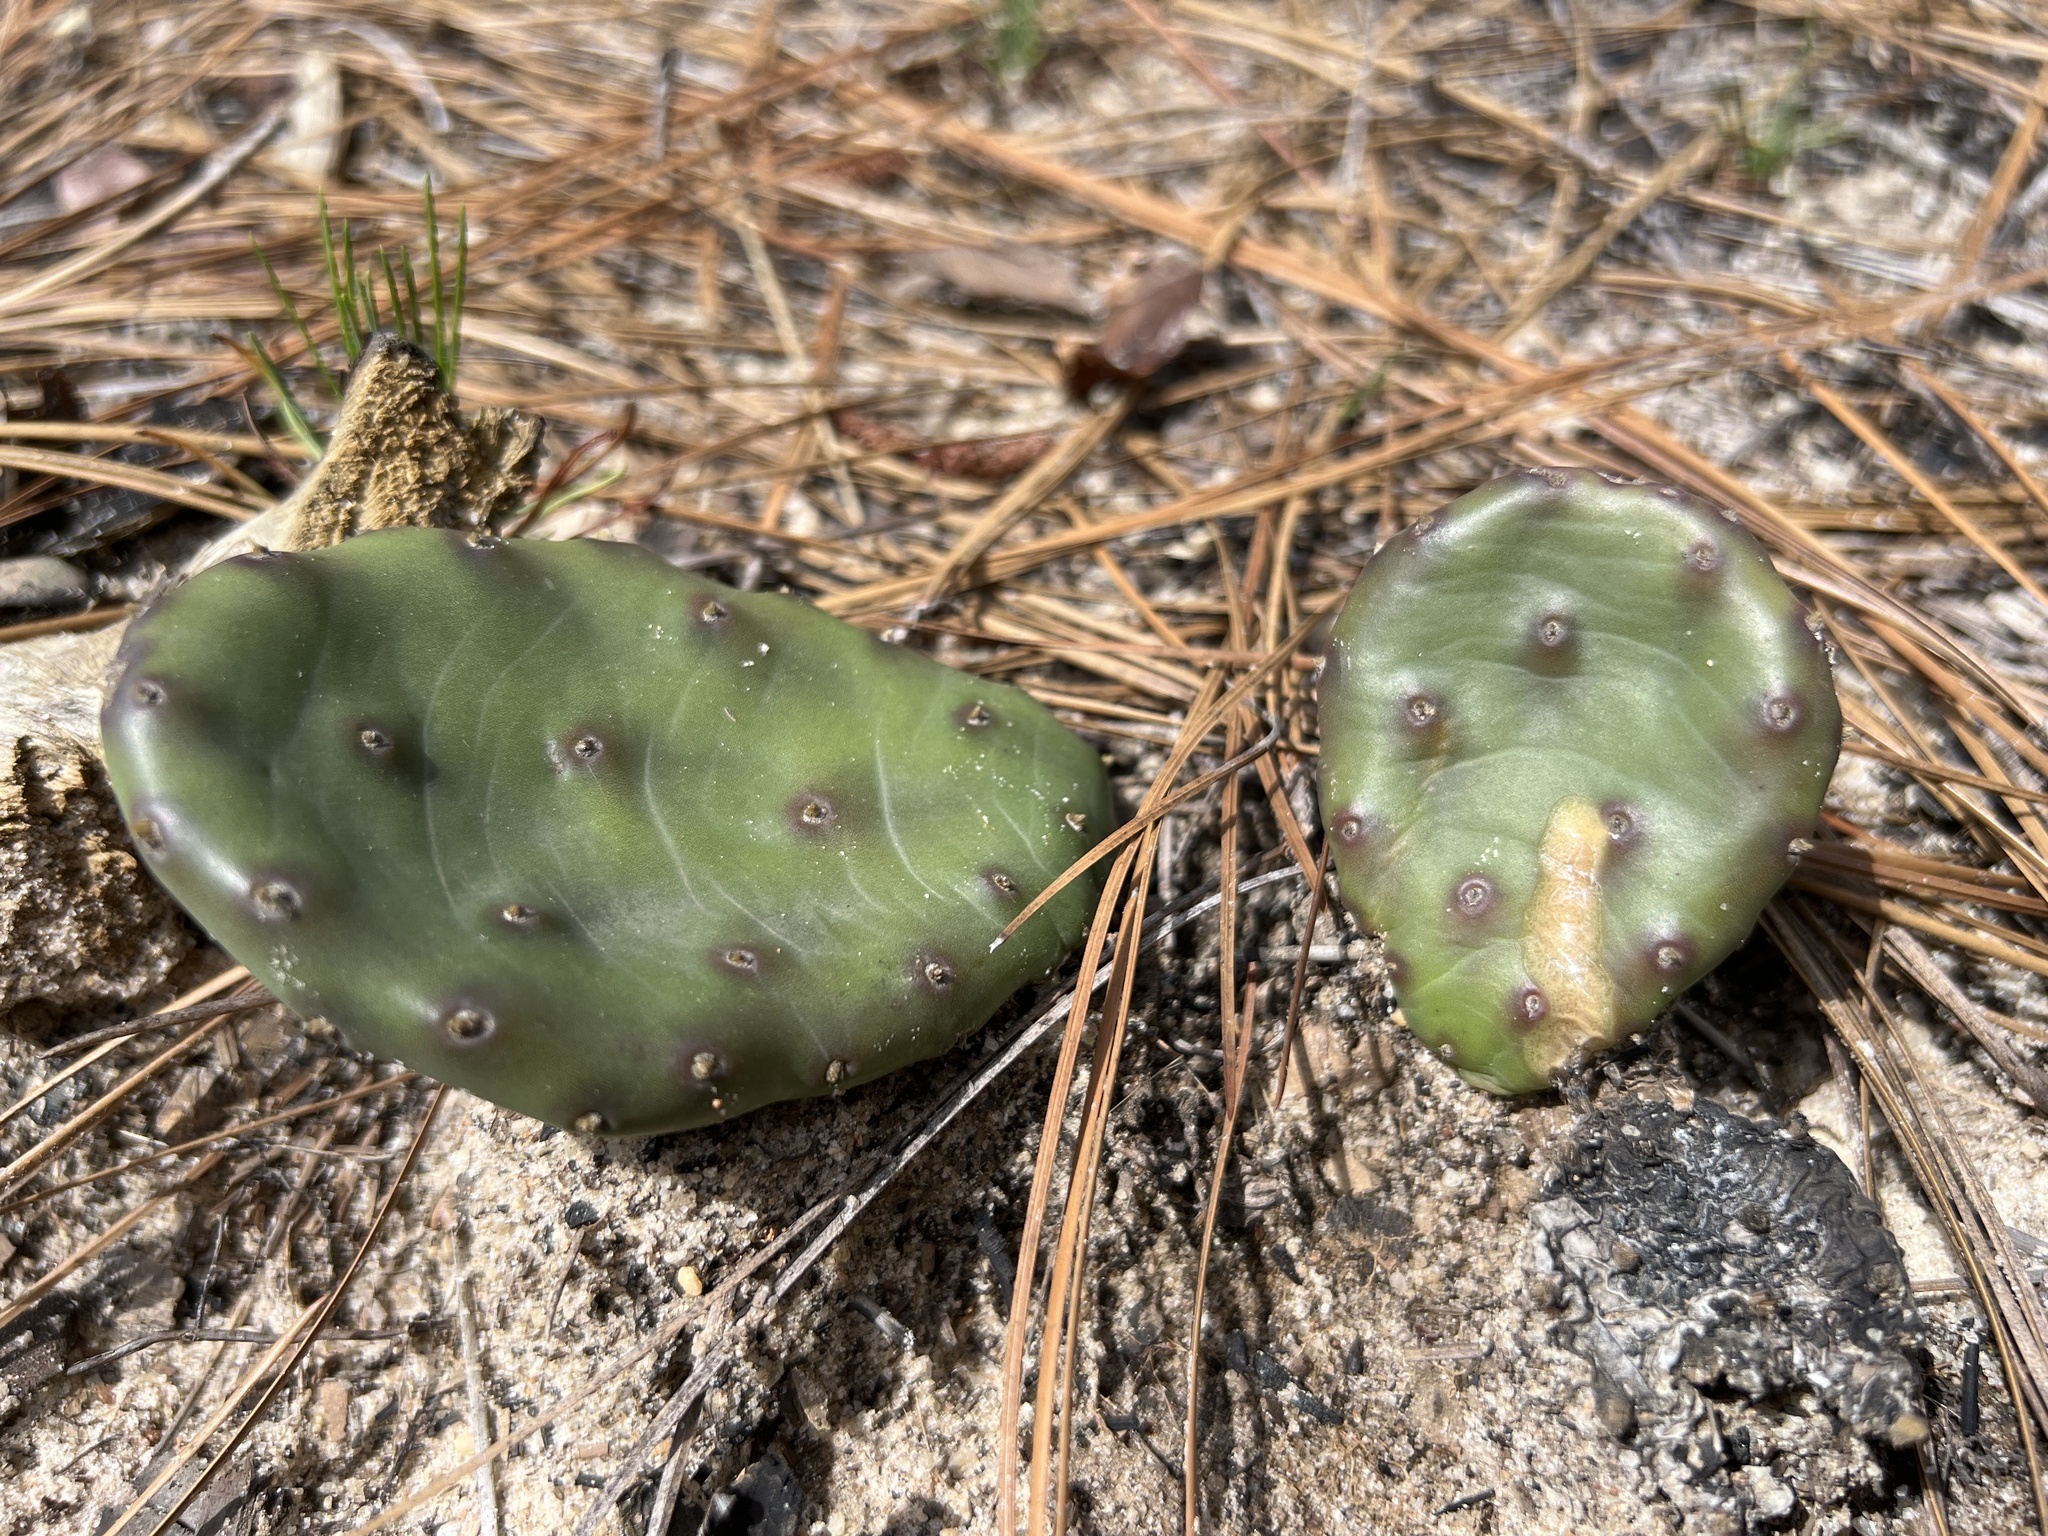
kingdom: Plantae
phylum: Tracheophyta
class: Magnoliopsida
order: Caryophyllales
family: Cactaceae
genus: Opuntia
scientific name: Opuntia mesacantha
